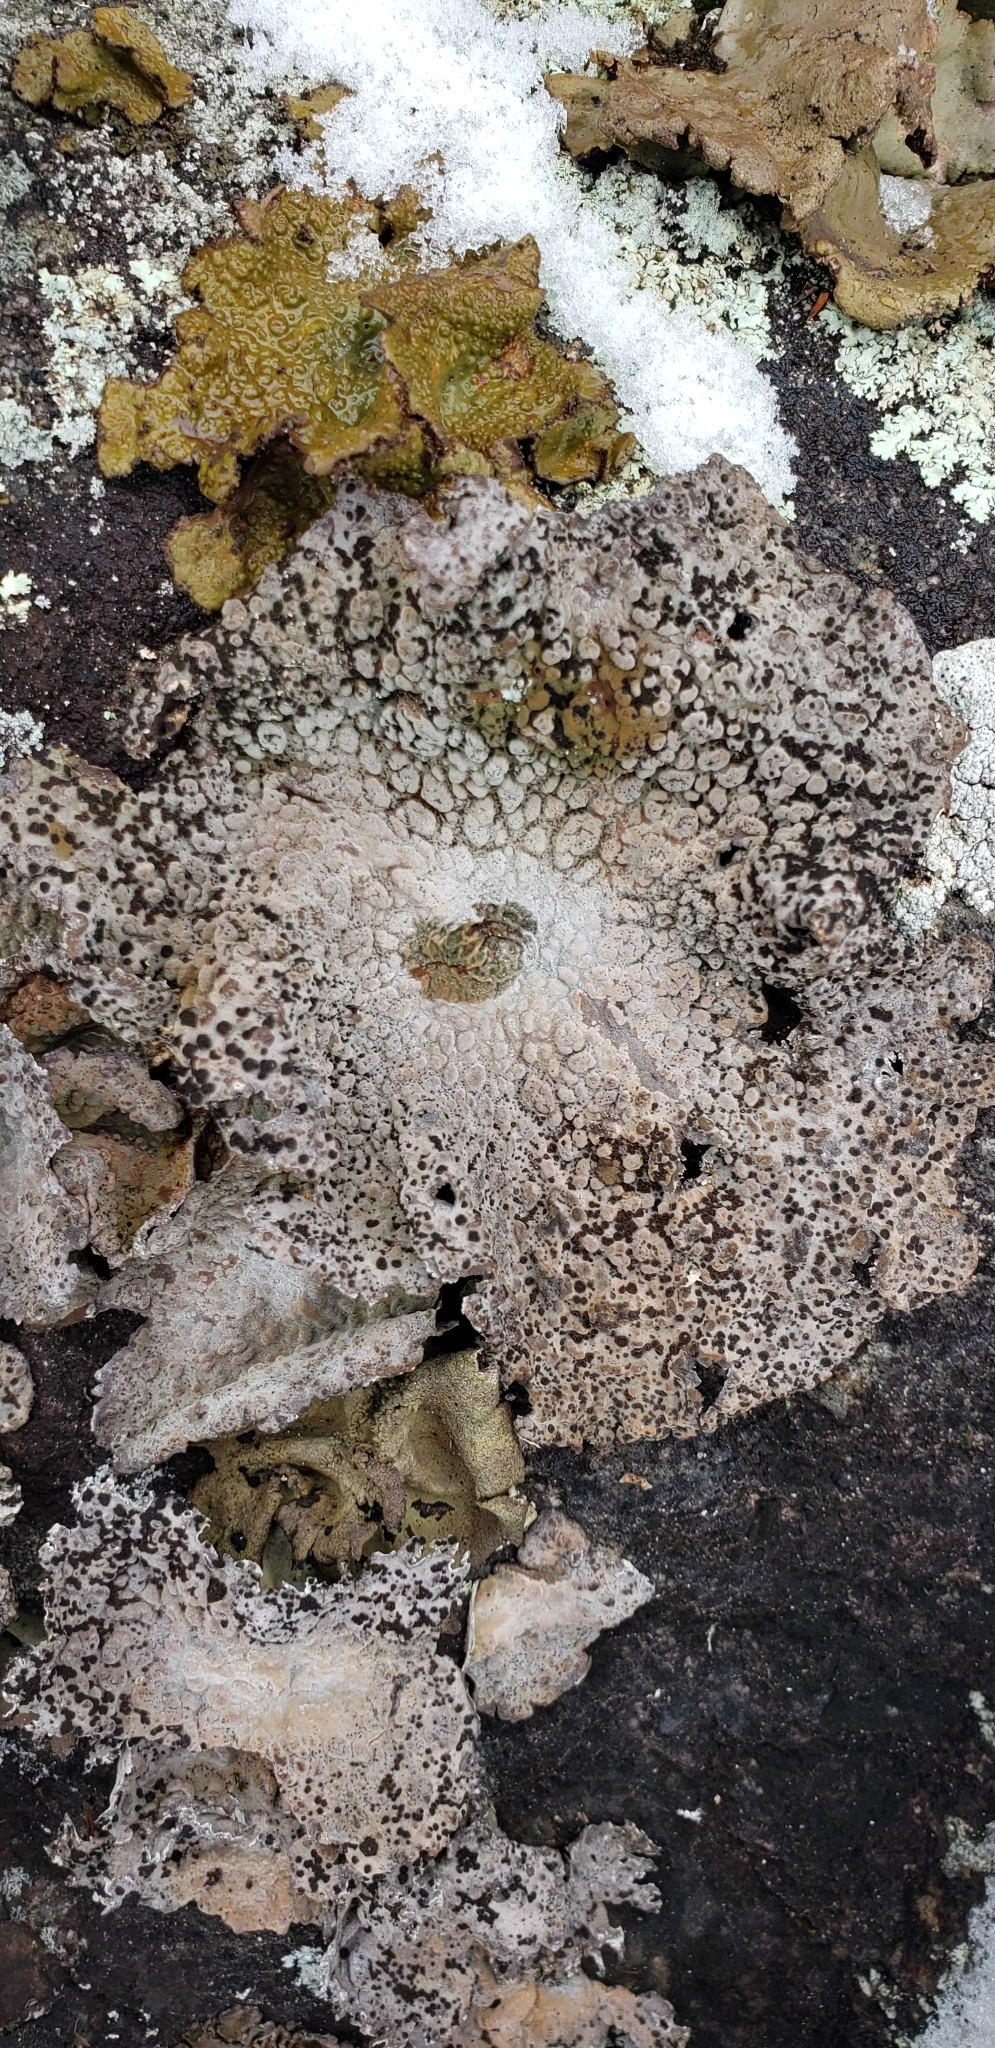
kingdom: Fungi
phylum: Ascomycota
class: Lecanoromycetes
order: Umbilicariales
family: Umbilicariaceae
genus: Lasallia
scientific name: Lasallia papulosa
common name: Common toadskin lichen
